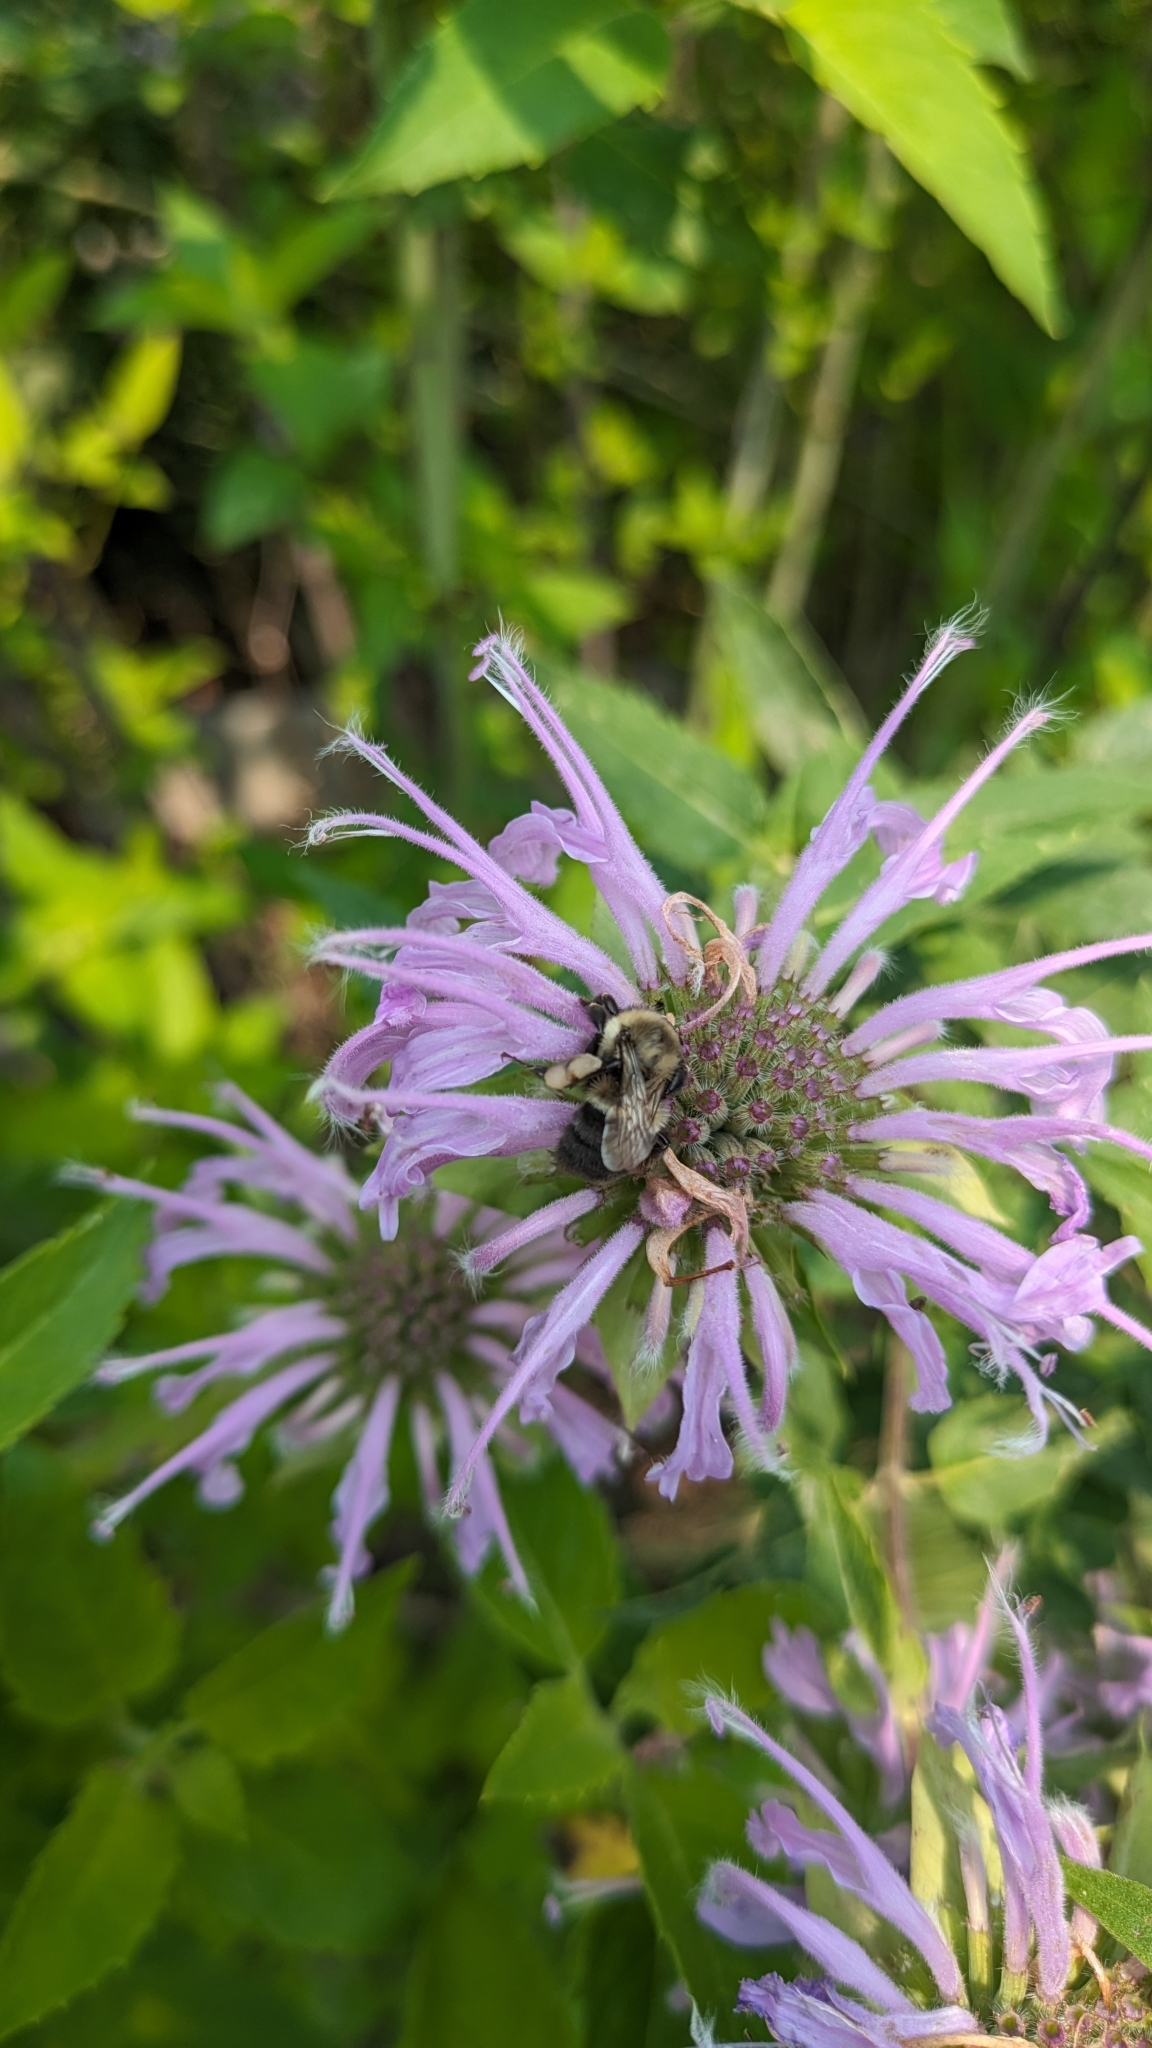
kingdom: Animalia
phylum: Arthropoda
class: Insecta
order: Hymenoptera
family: Apidae
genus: Bombus
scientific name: Bombus impatiens
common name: Common eastern bumble bee
